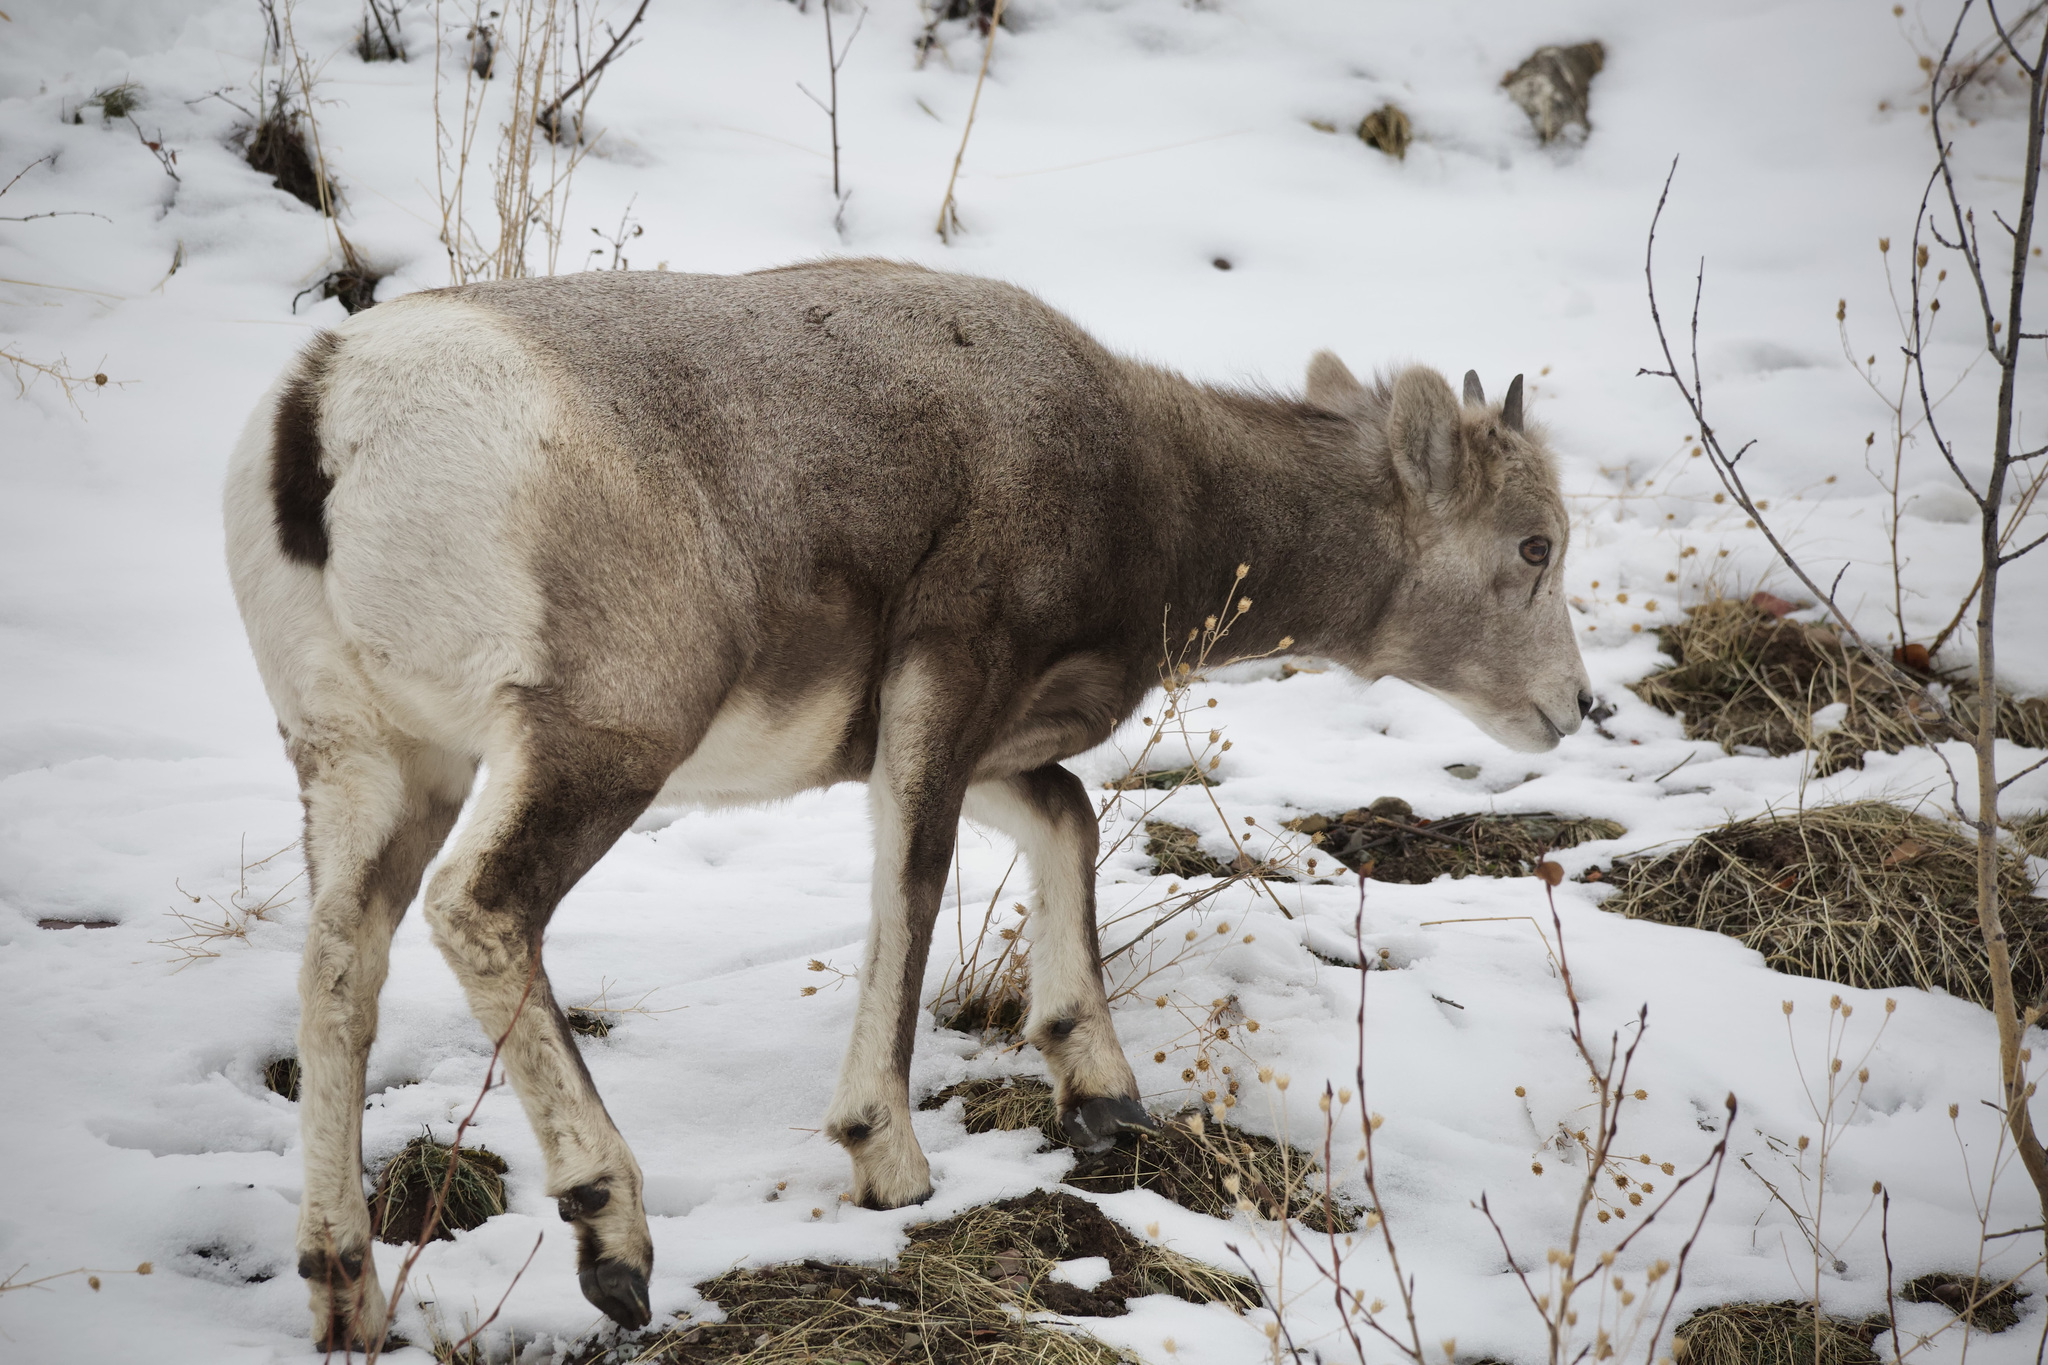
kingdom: Animalia
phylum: Chordata
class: Mammalia
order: Artiodactyla
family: Bovidae
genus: Ovis
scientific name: Ovis canadensis
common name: Bighorn sheep
